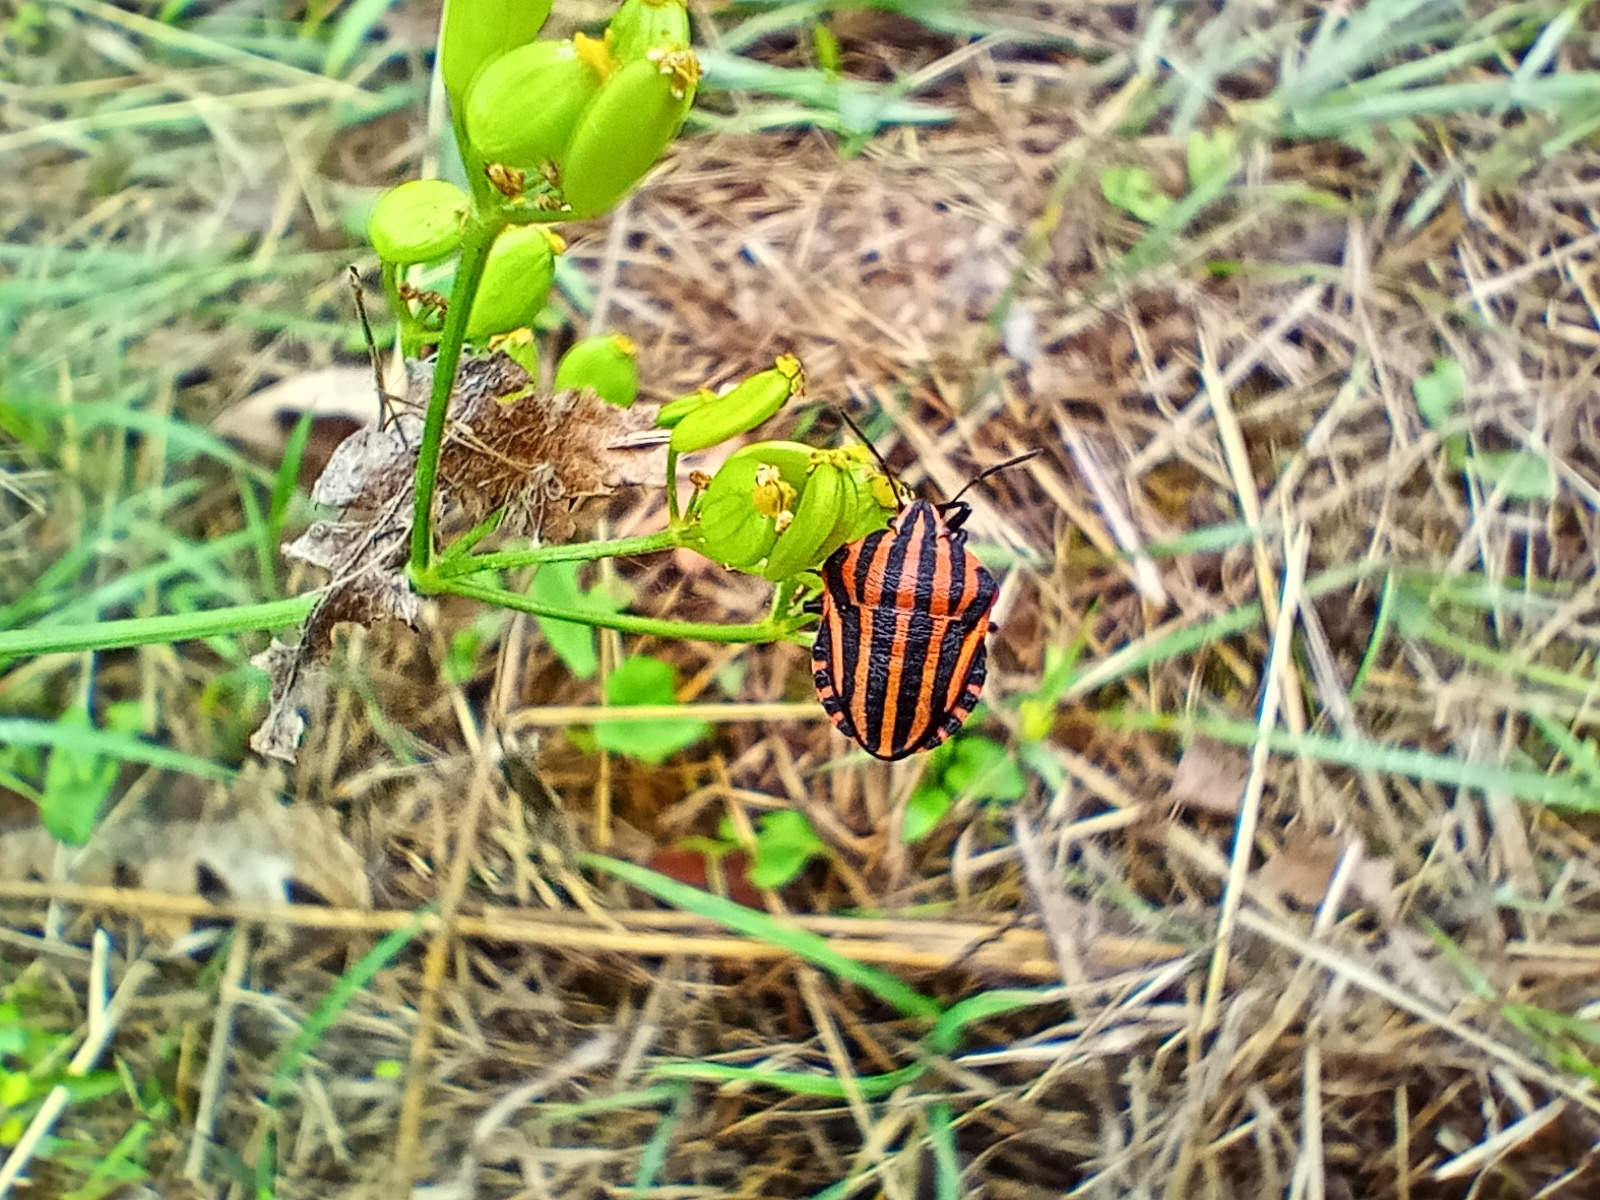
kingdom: Animalia
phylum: Arthropoda
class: Insecta
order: Hemiptera
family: Pentatomidae
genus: Graphosoma
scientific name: Graphosoma italicum
